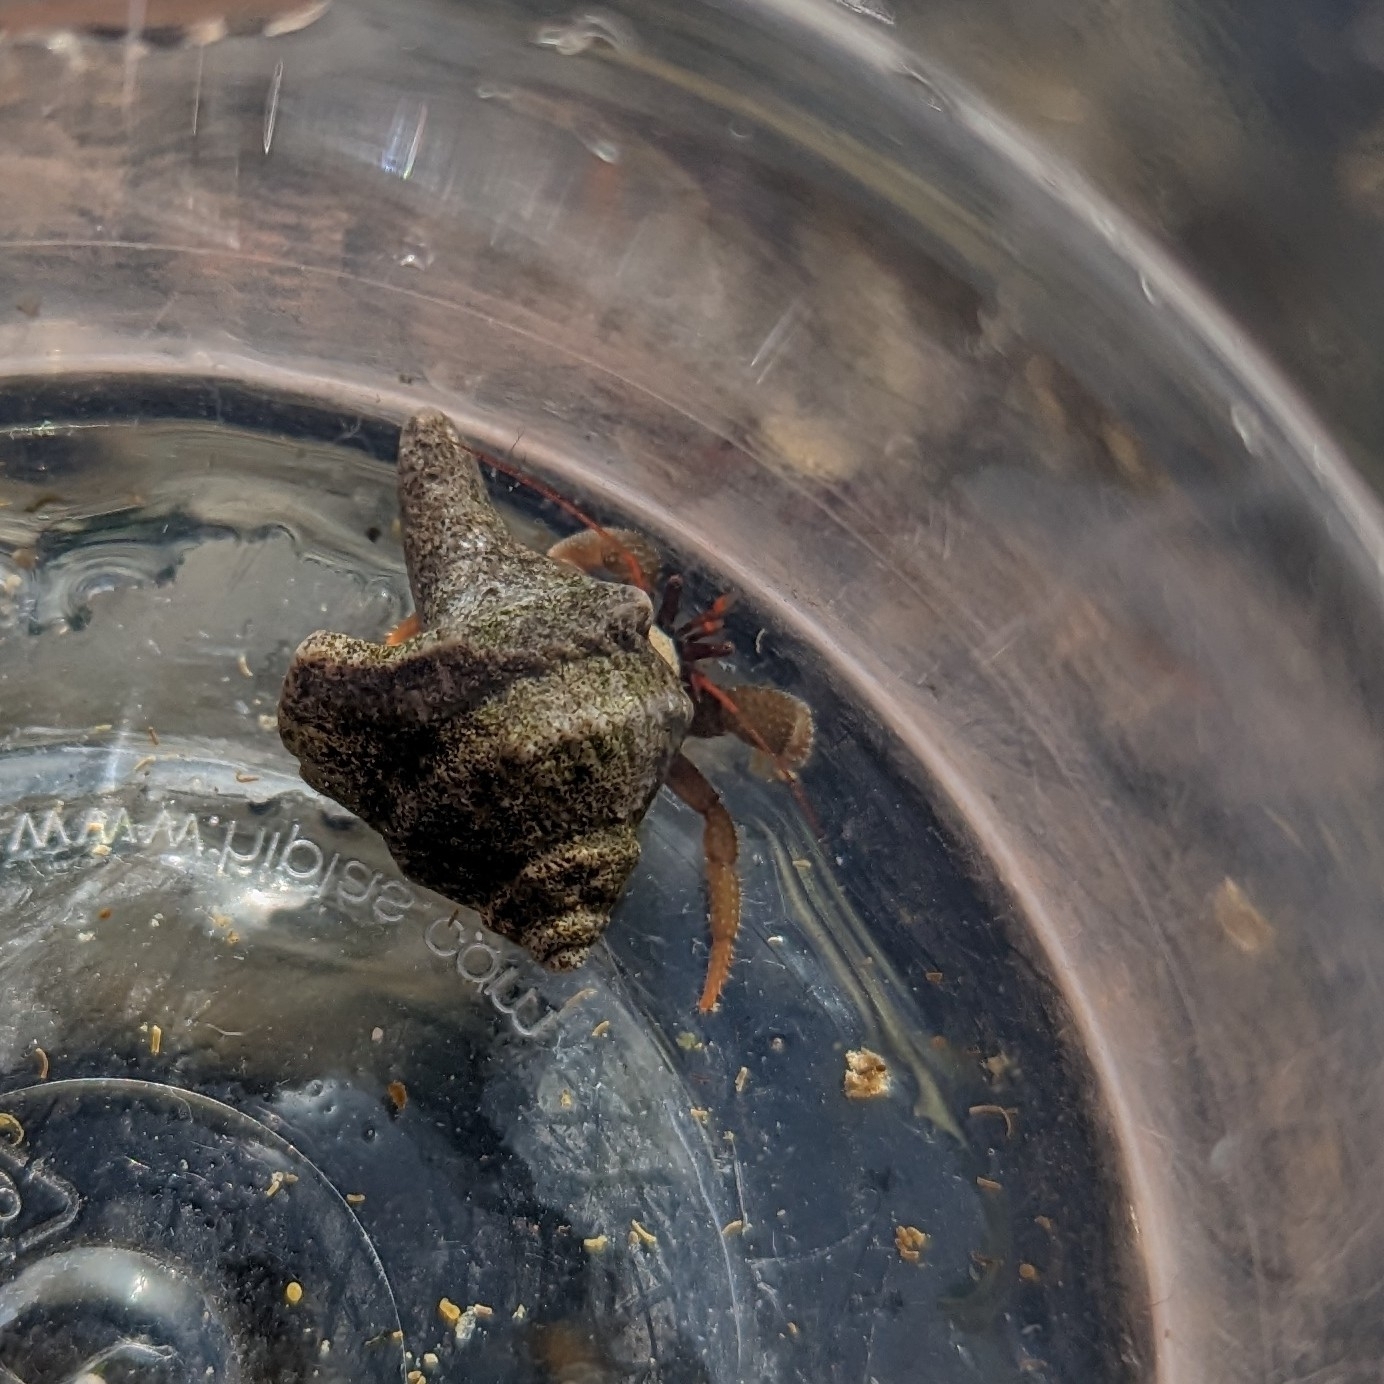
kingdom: Animalia
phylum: Arthropoda
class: Malacostraca
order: Decapoda
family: Paguridae
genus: Pagurus
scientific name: Pagurus granosimanus
